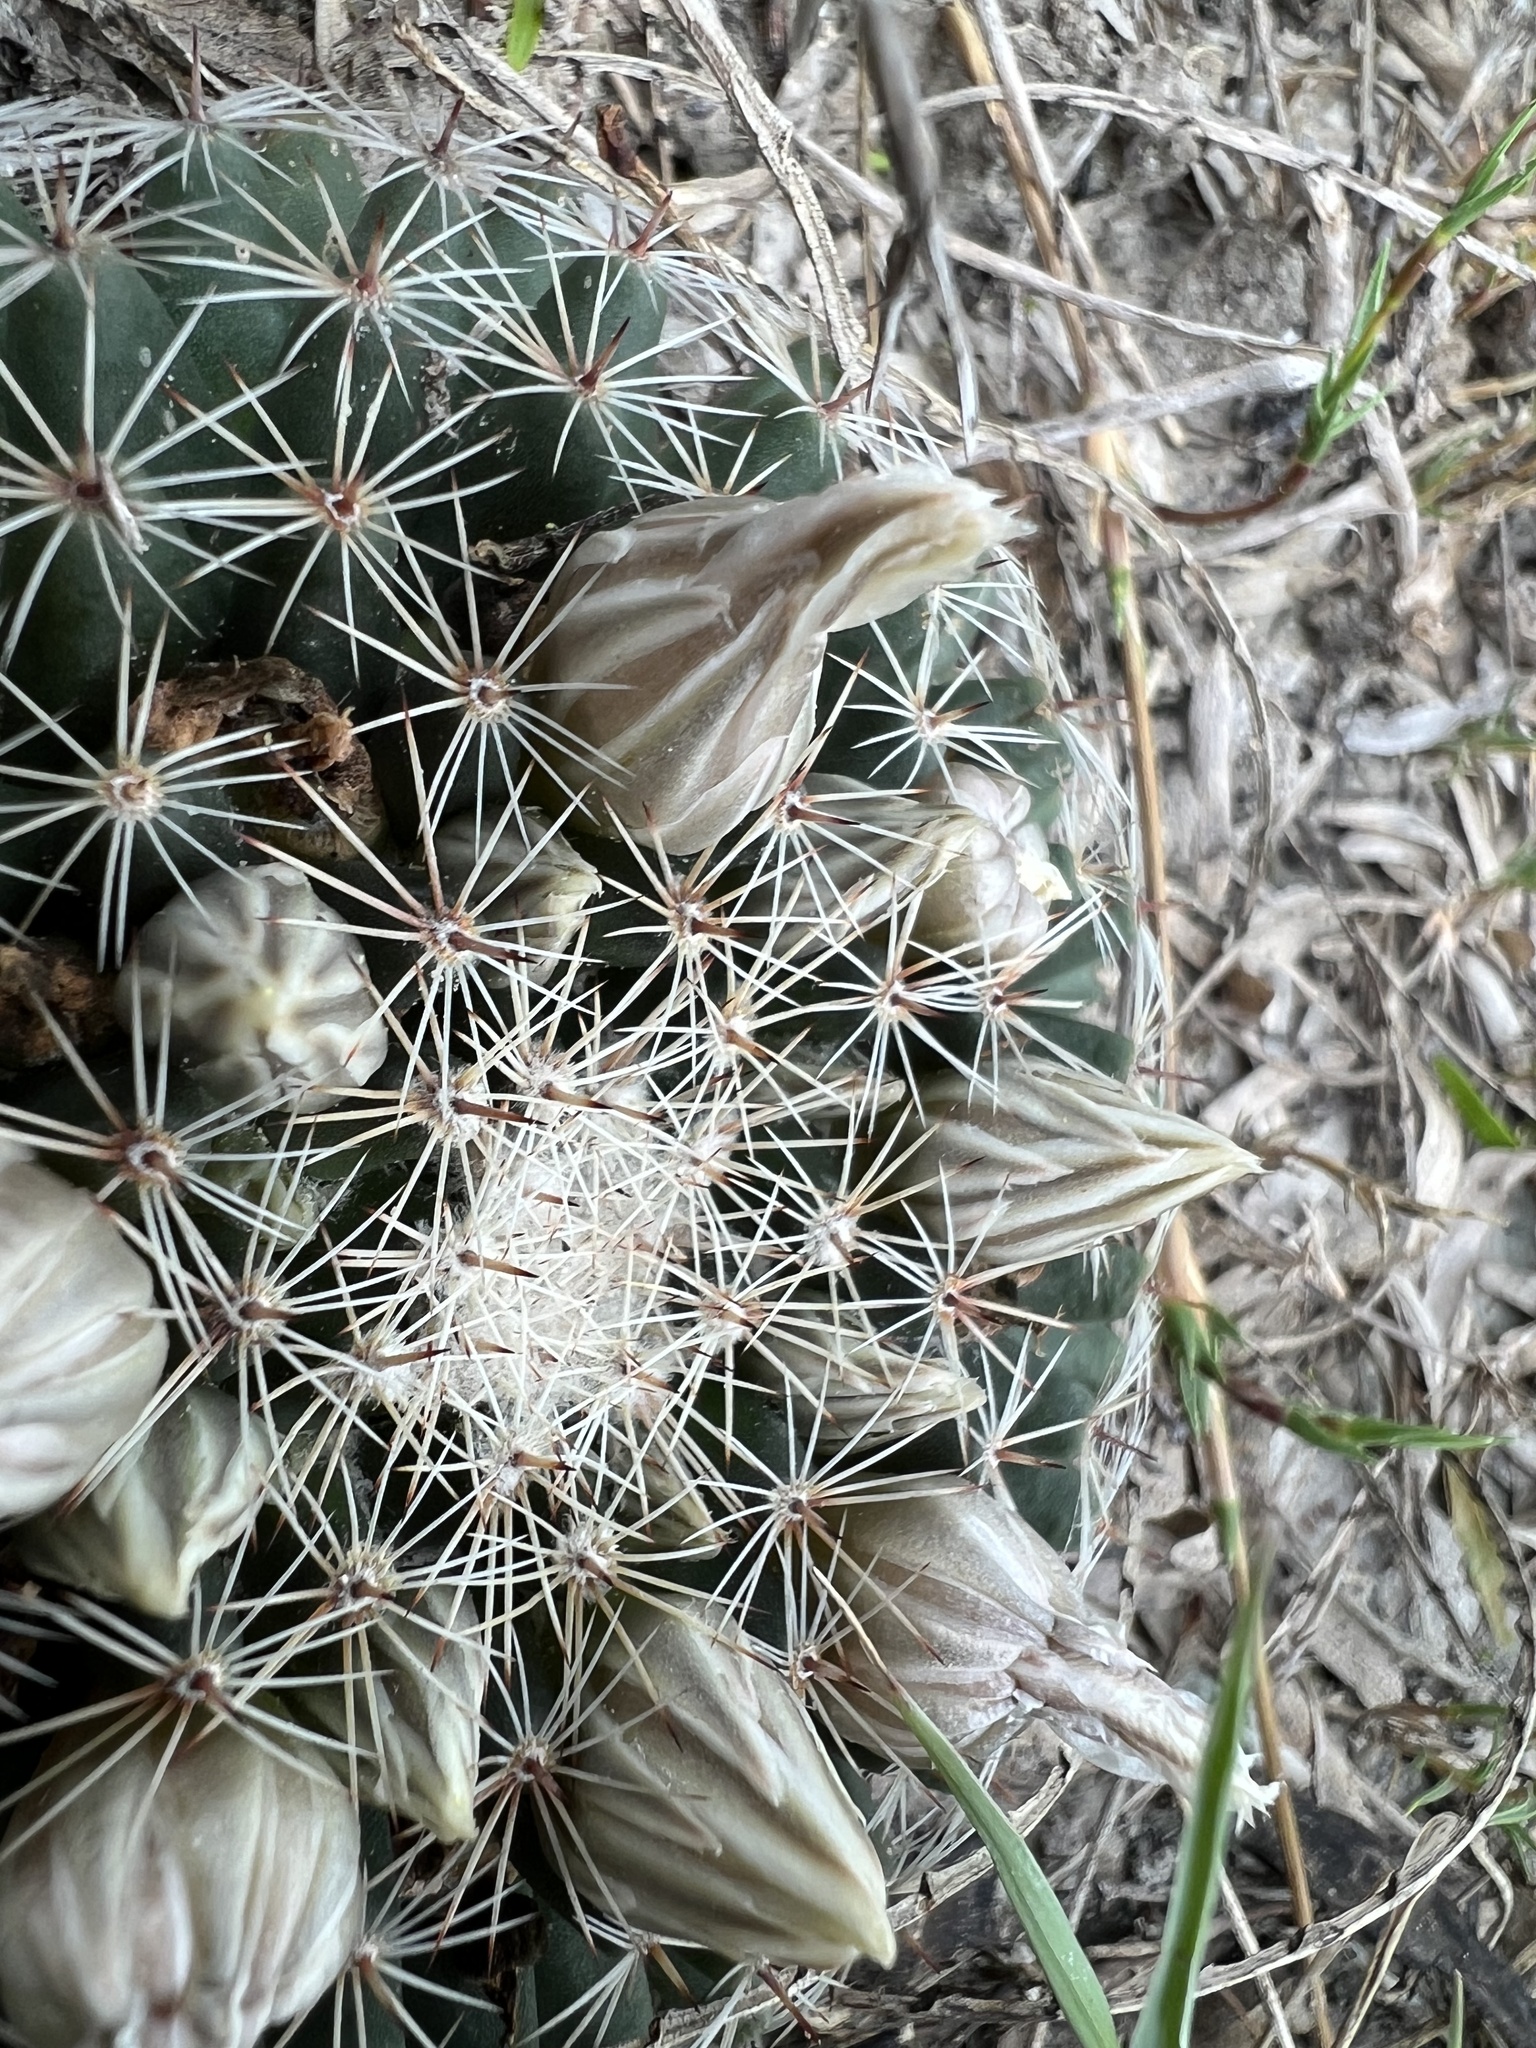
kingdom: Plantae
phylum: Tracheophyta
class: Magnoliopsida
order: Caryophyllales
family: Cactaceae
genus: Mammillaria
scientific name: Mammillaria heyderi
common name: Little nipple cactus
